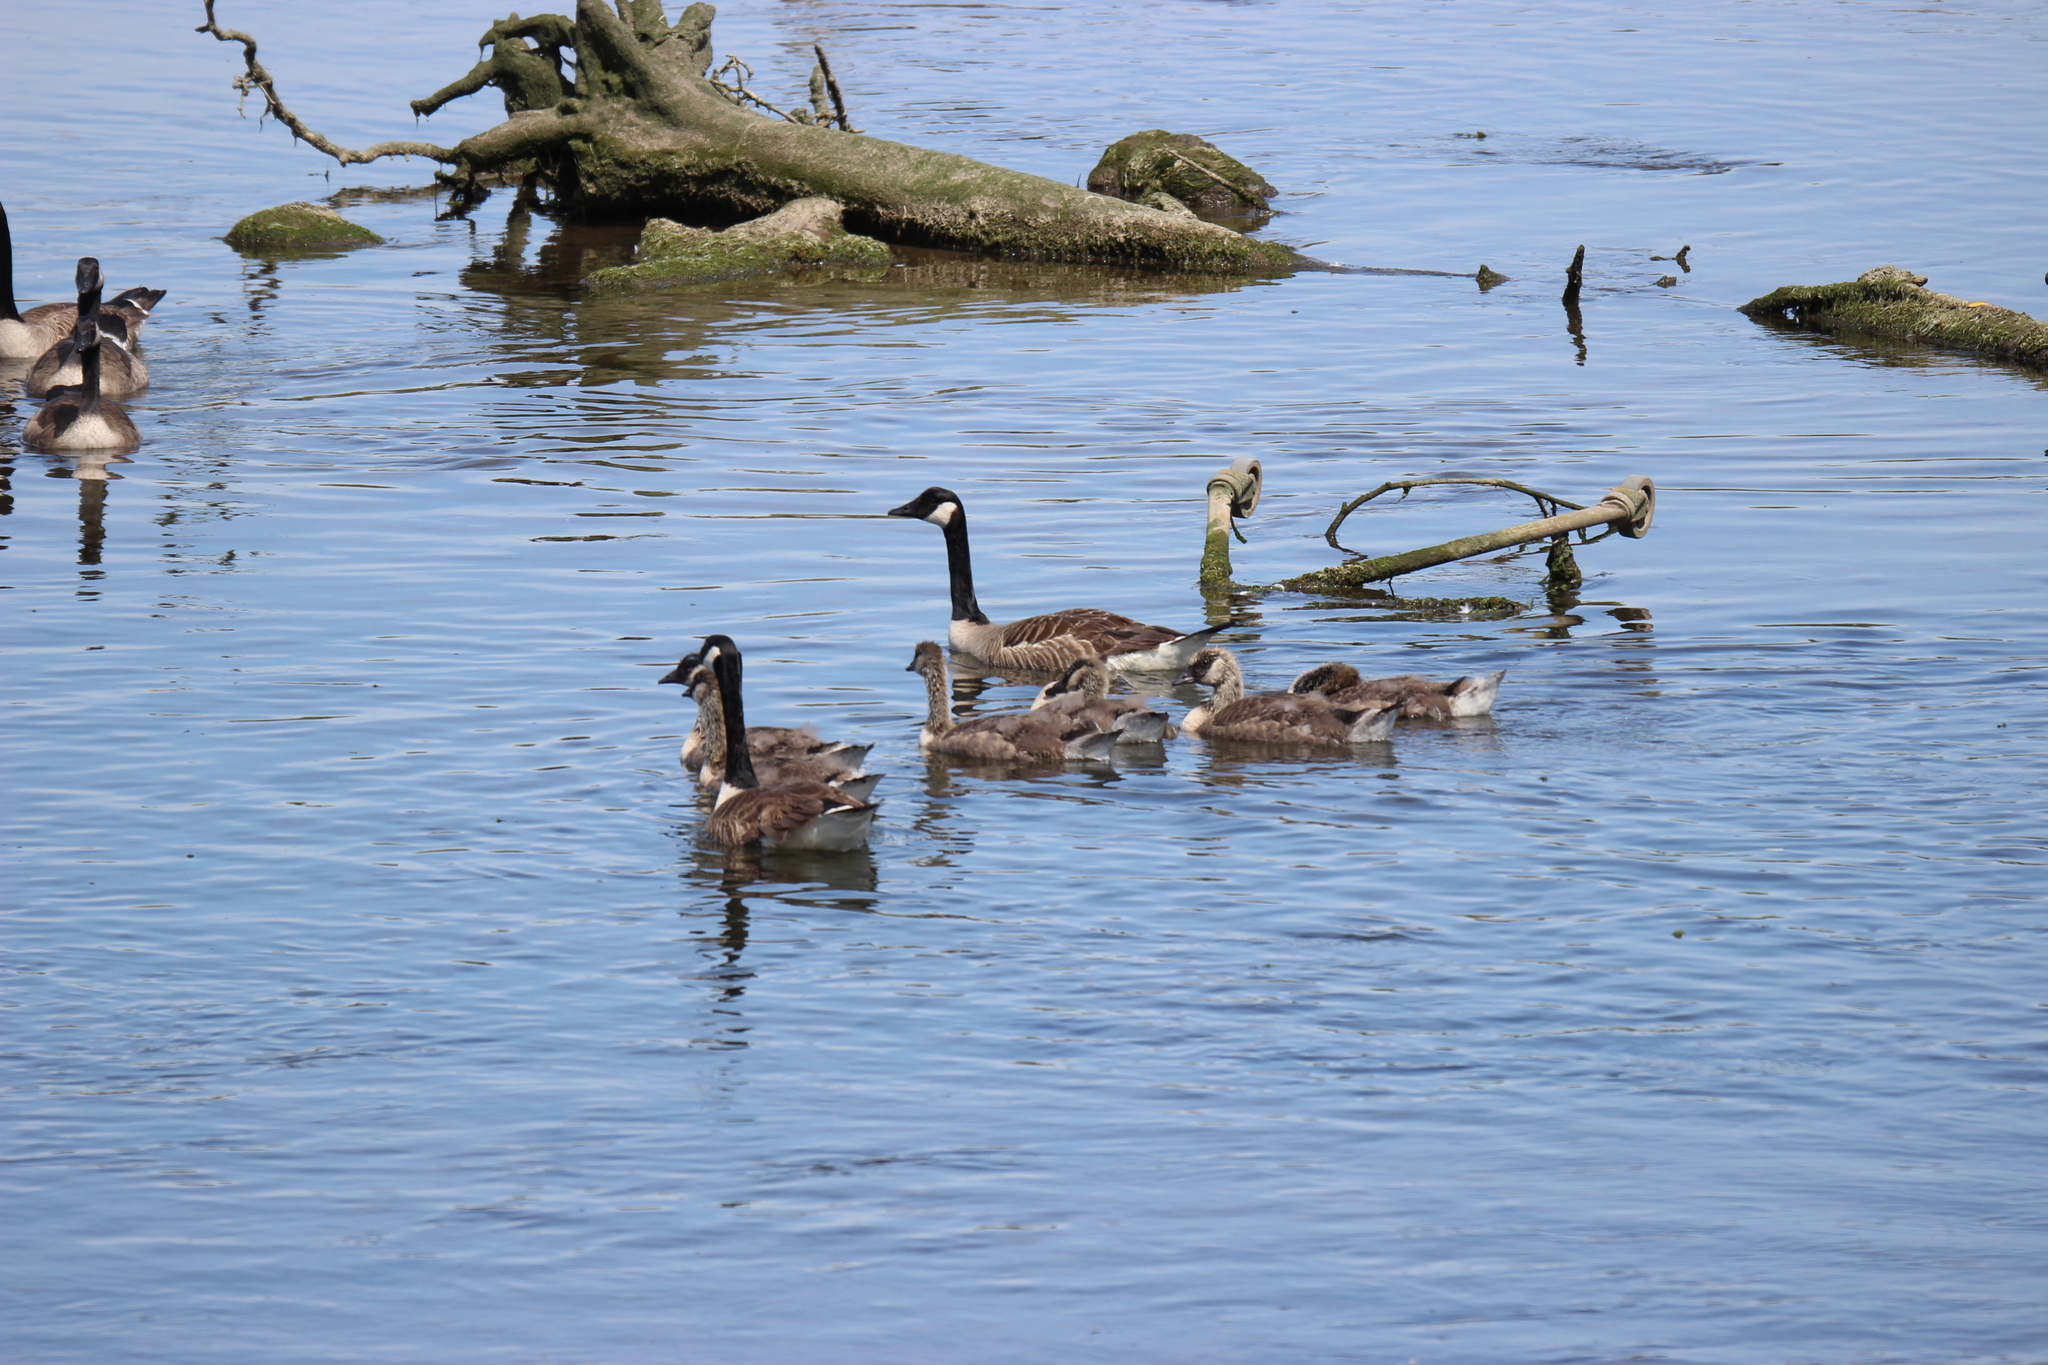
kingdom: Animalia
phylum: Chordata
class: Aves
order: Anseriformes
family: Anatidae
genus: Branta
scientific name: Branta canadensis
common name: Canada goose
